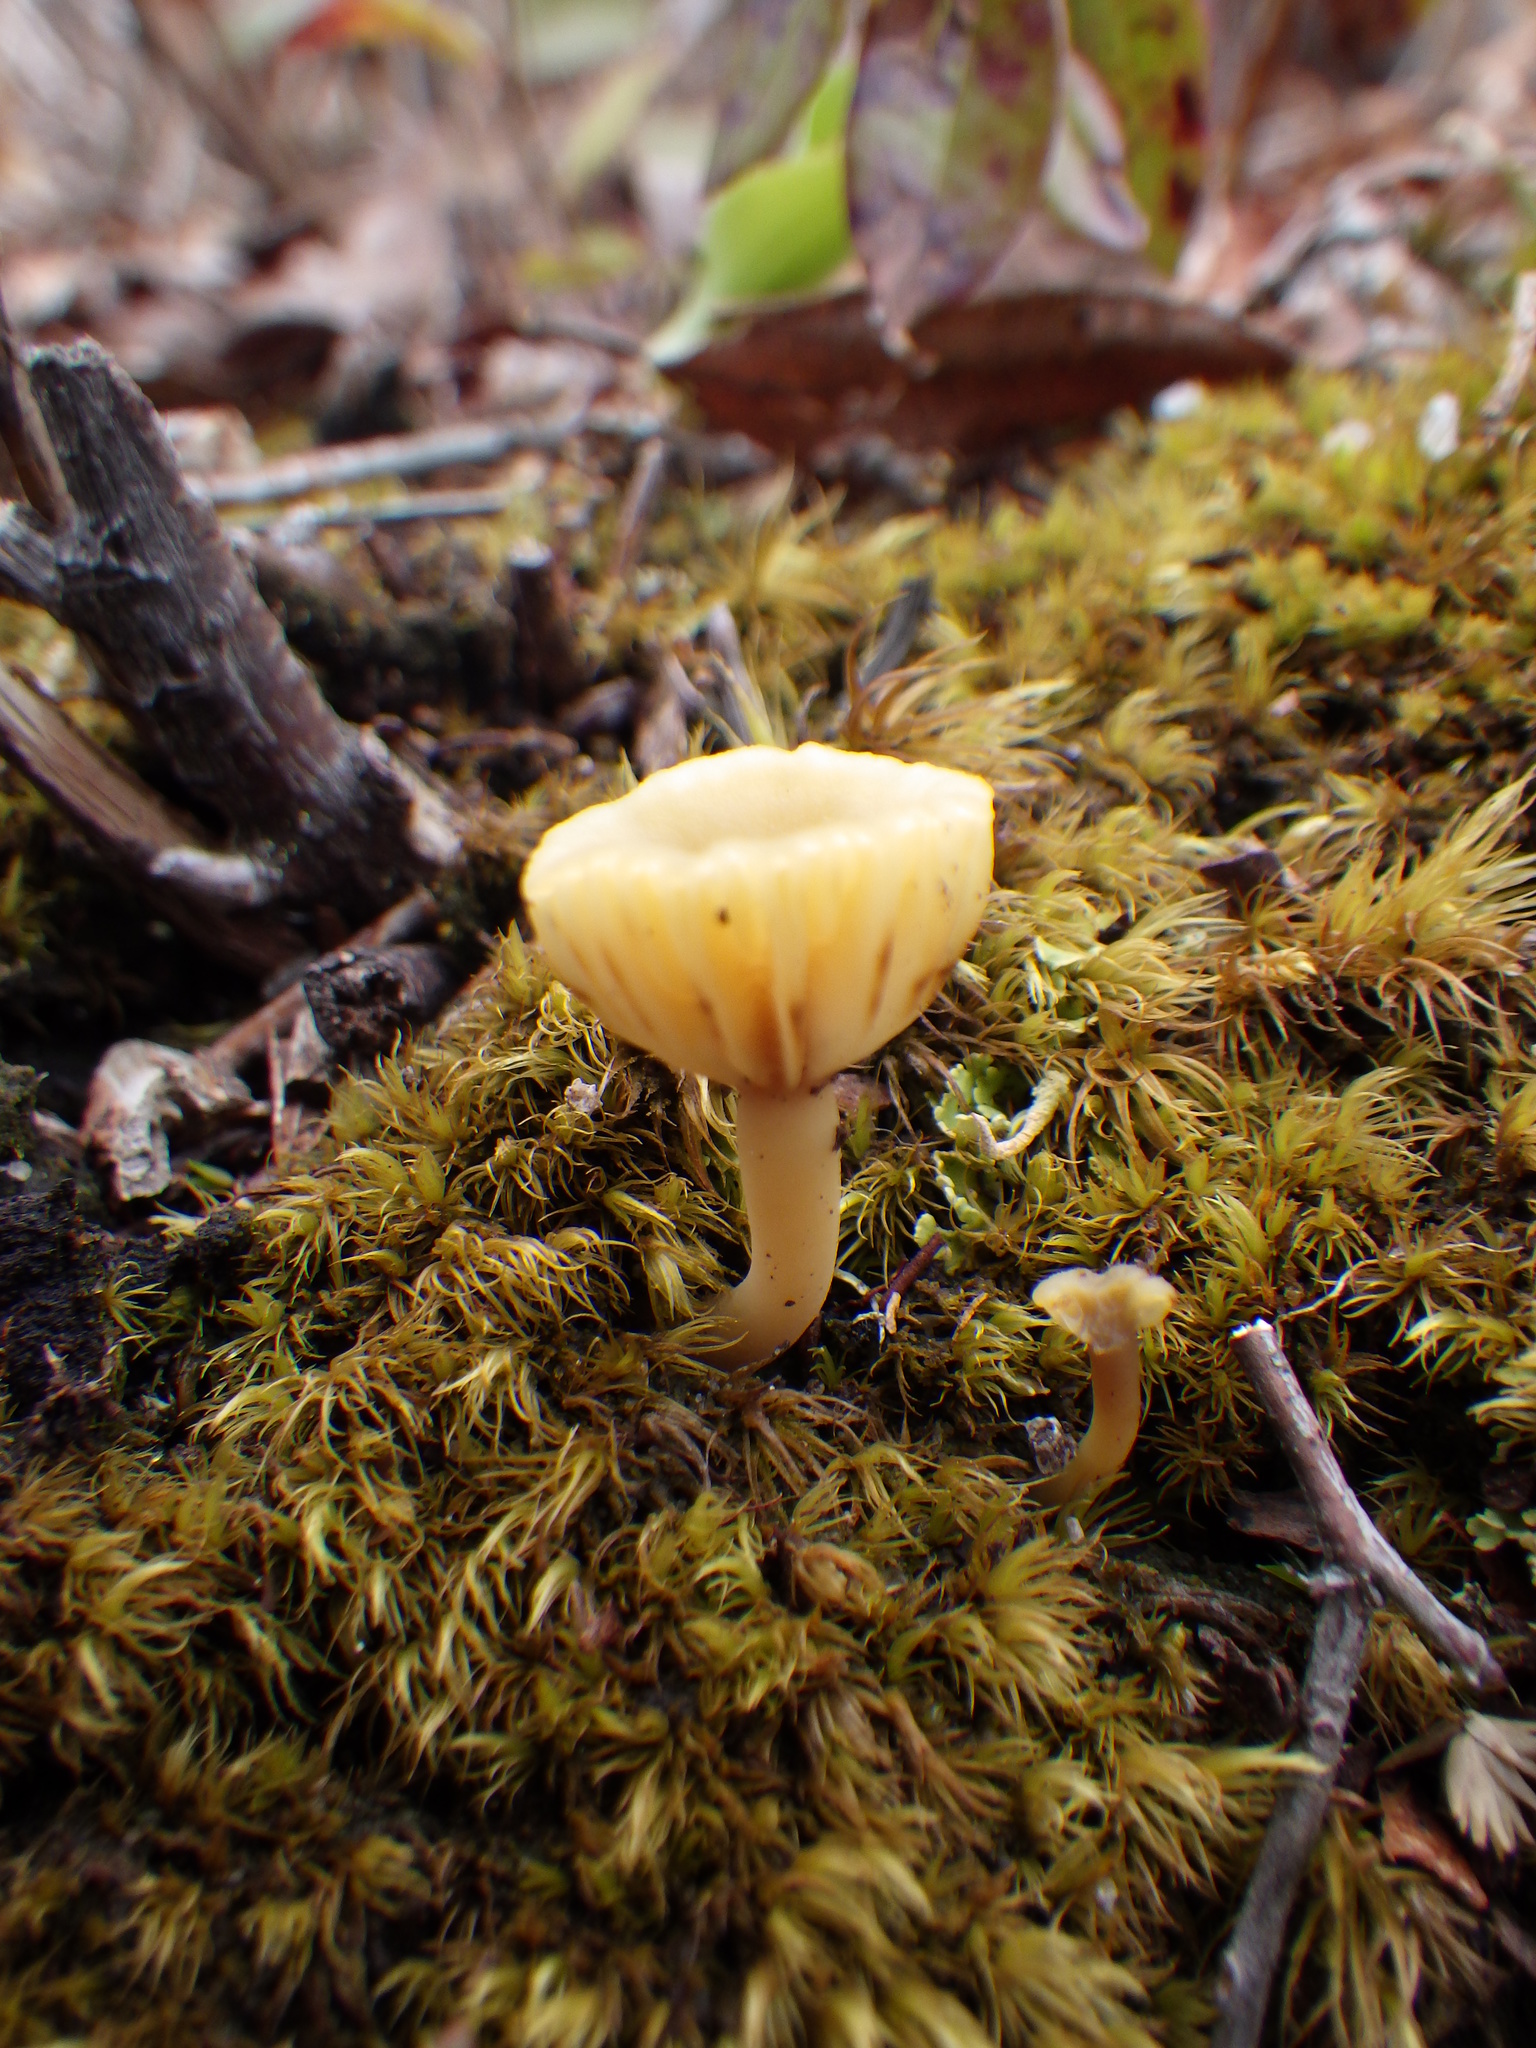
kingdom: Fungi
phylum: Basidiomycota
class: Agaricomycetes
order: Agaricales
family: Hygrophoraceae
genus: Lichenomphalia
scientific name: Lichenomphalia
